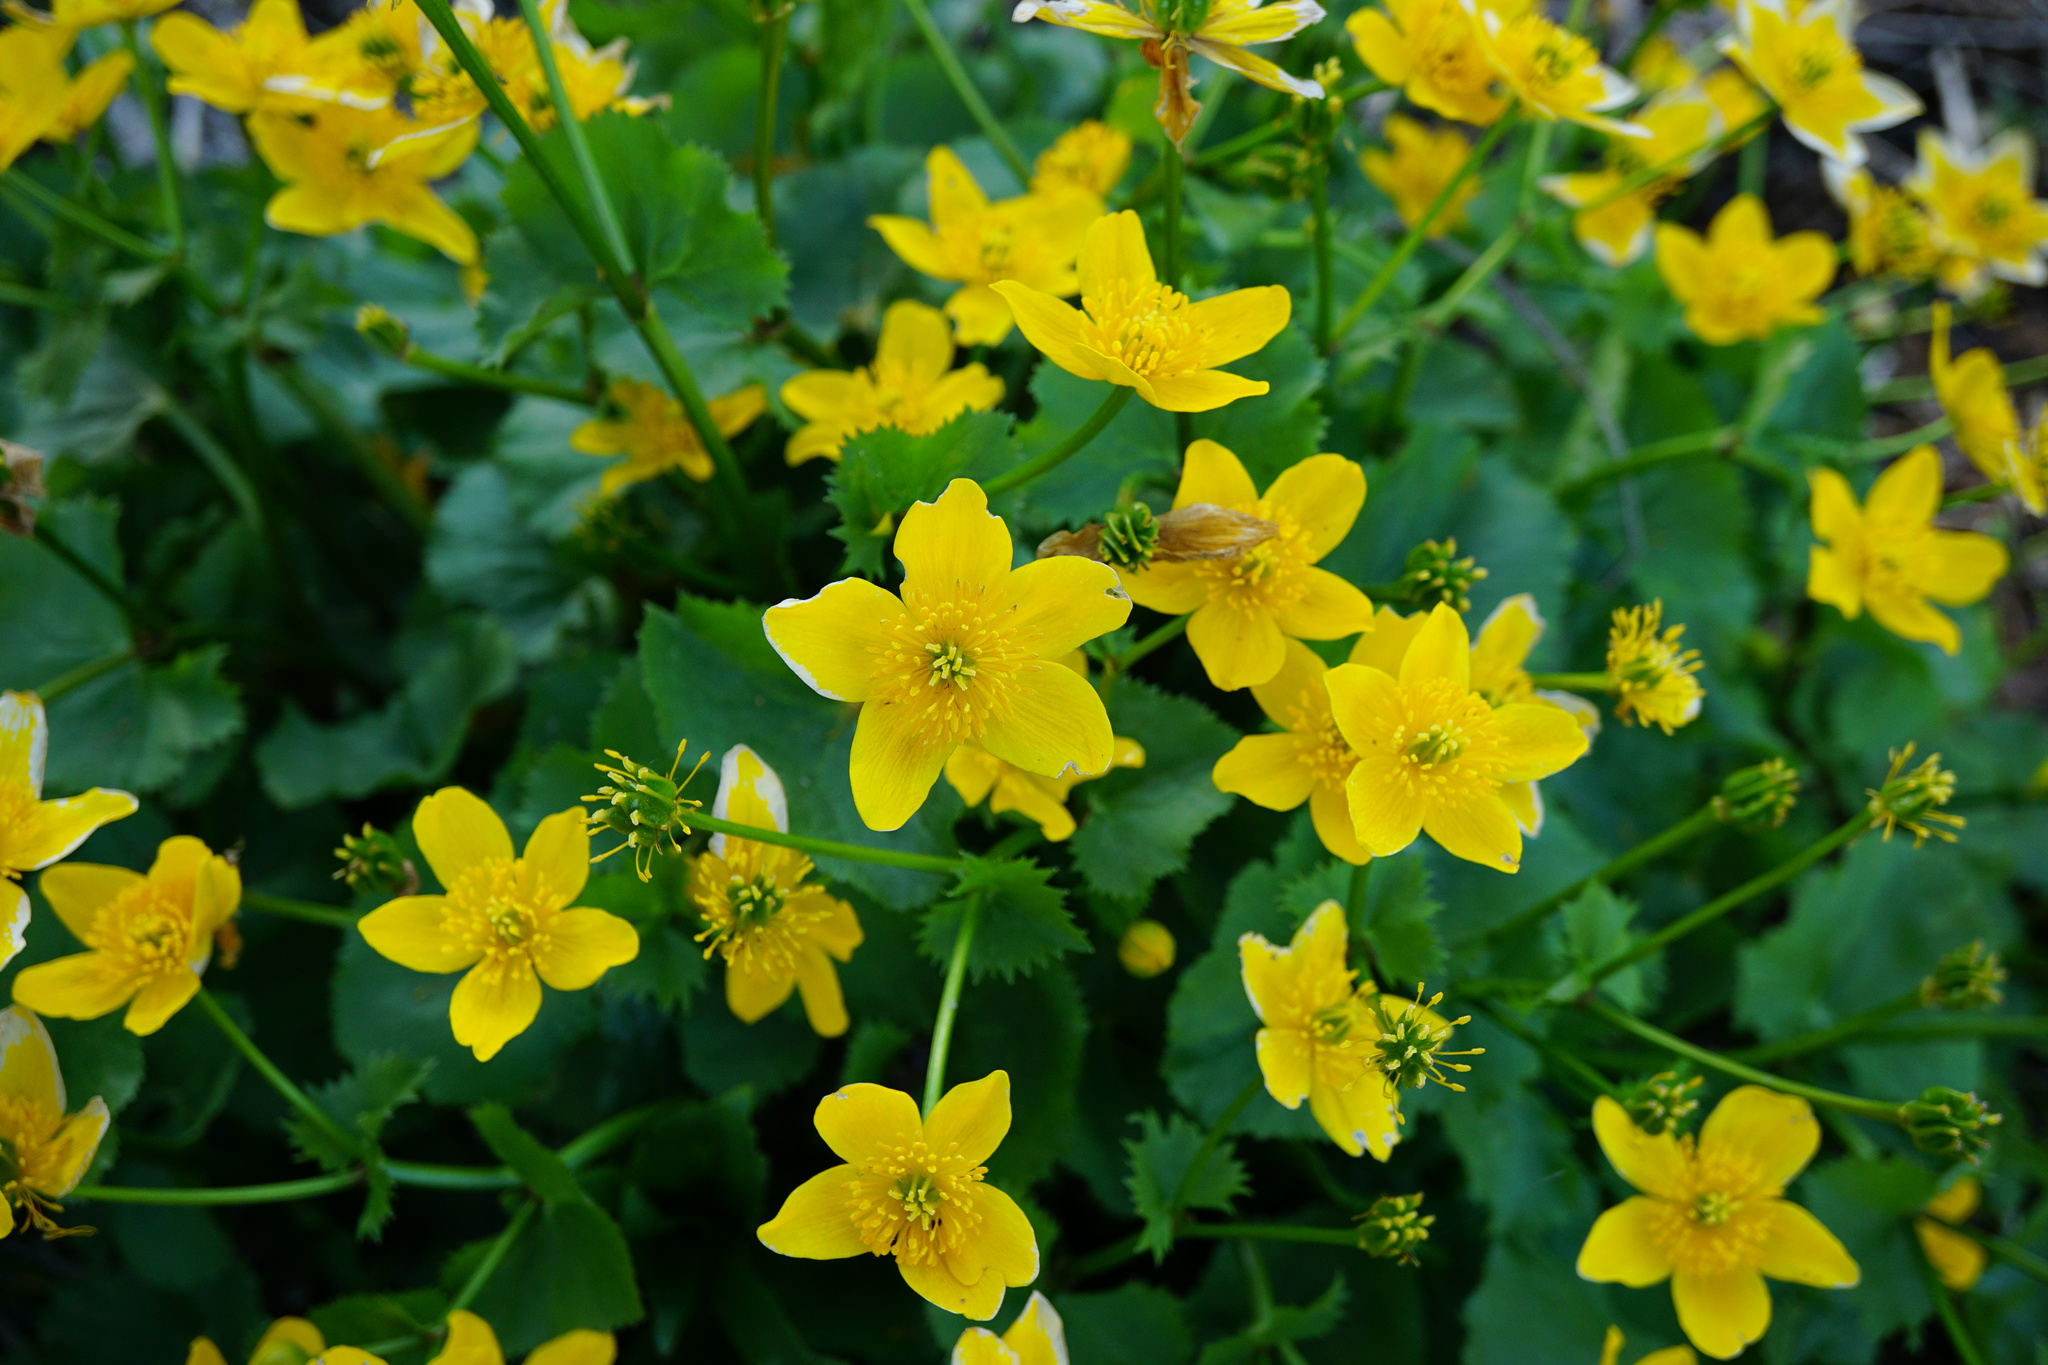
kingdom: Plantae
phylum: Tracheophyta
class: Magnoliopsida
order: Ranunculales
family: Ranunculaceae
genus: Caltha
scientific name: Caltha palustris
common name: Marsh marigold
